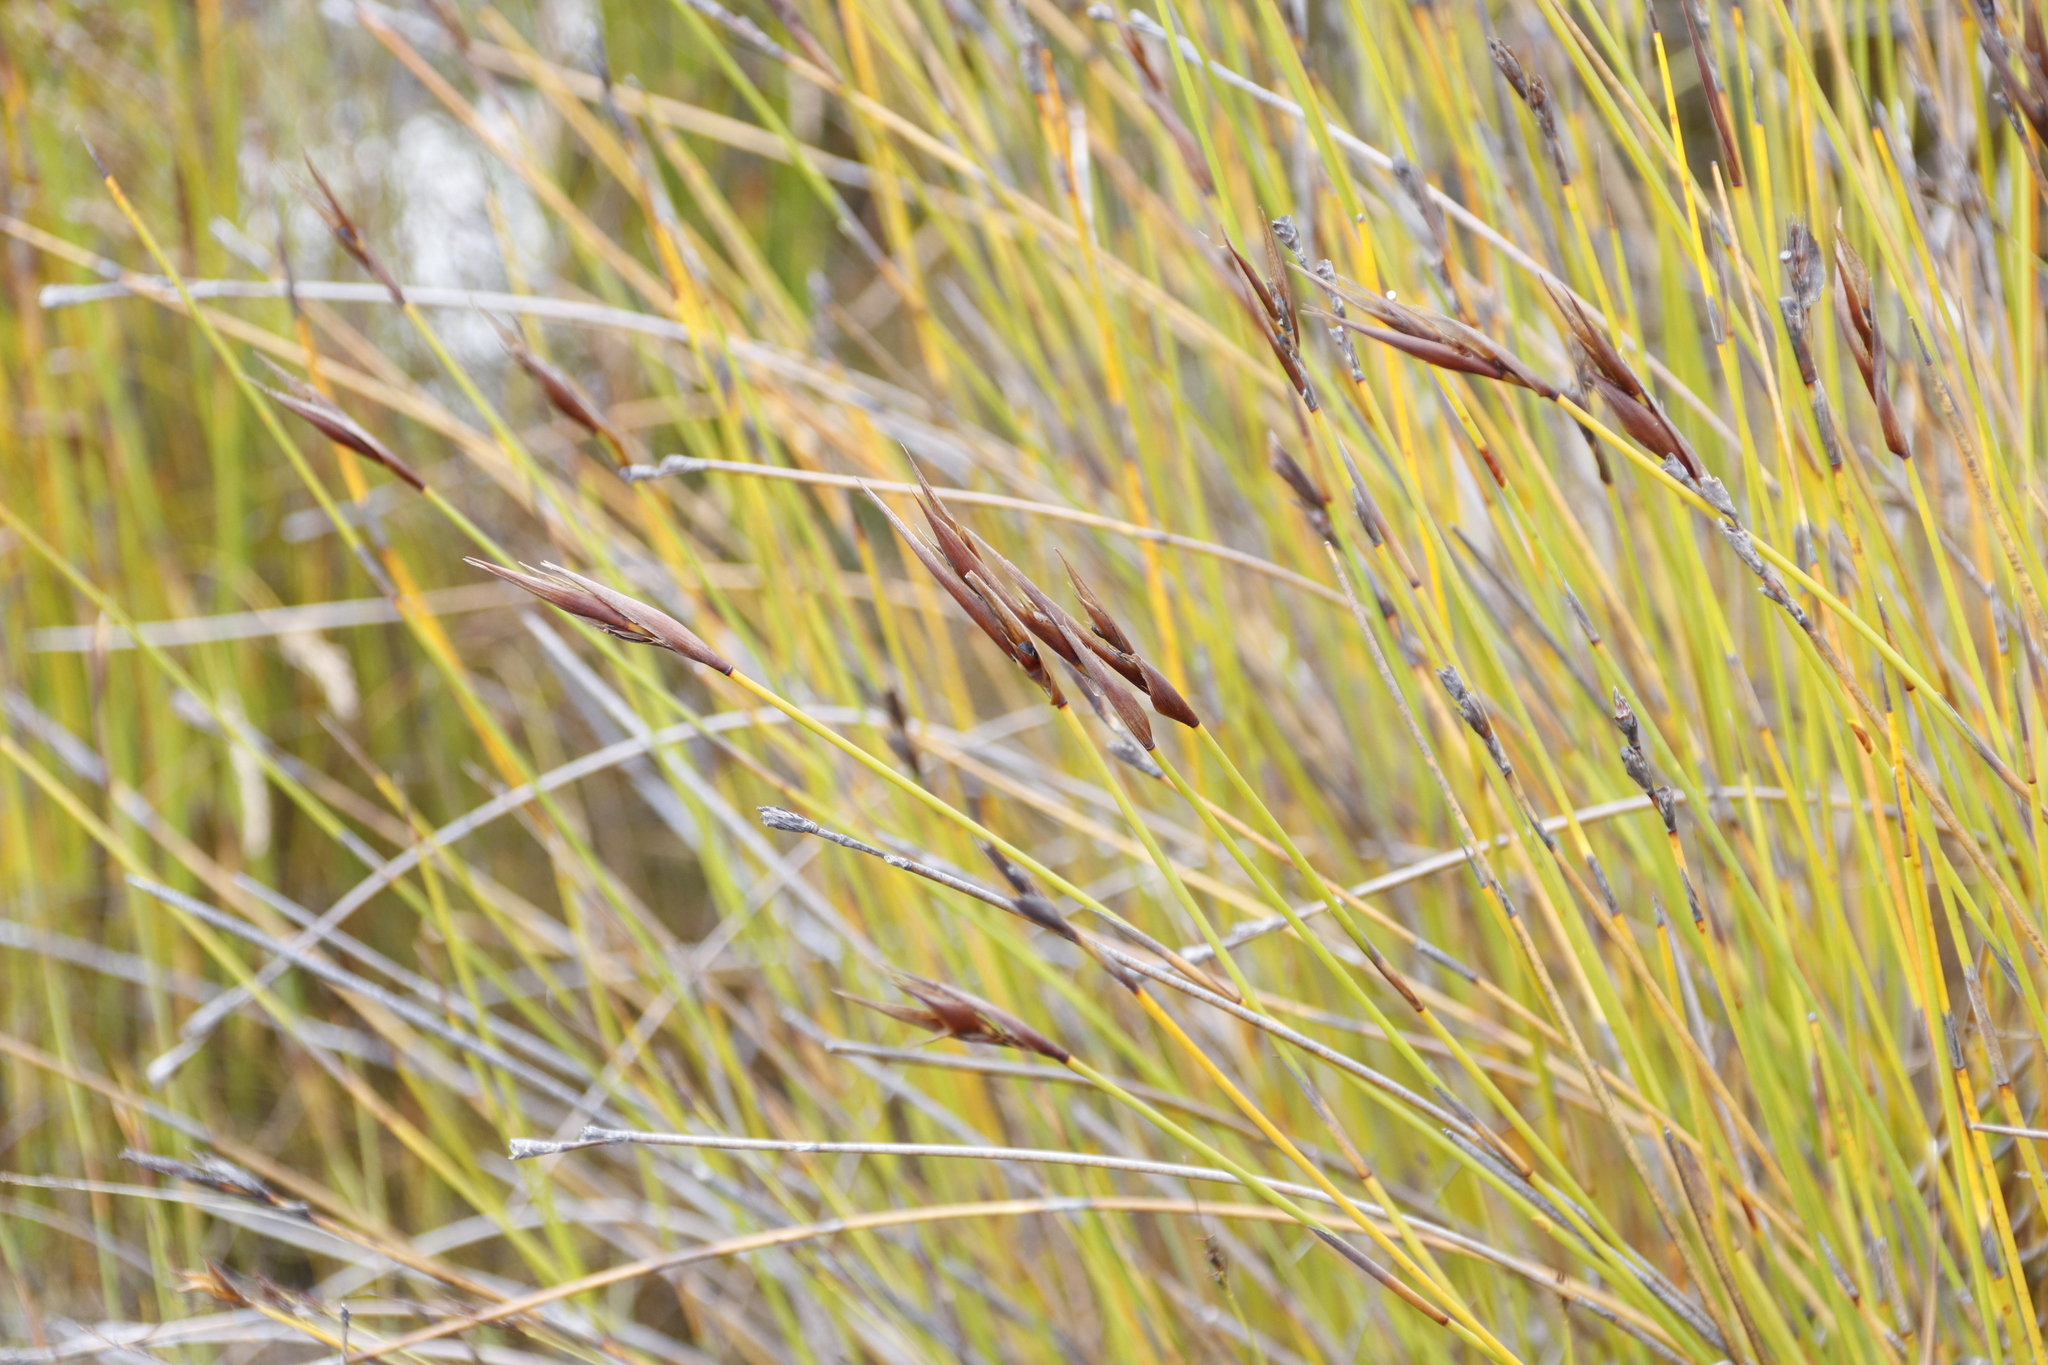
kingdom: Plantae
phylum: Tracheophyta
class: Liliopsida
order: Poales
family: Restionaceae
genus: Hypodiscus
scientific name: Hypodiscus argenteus
